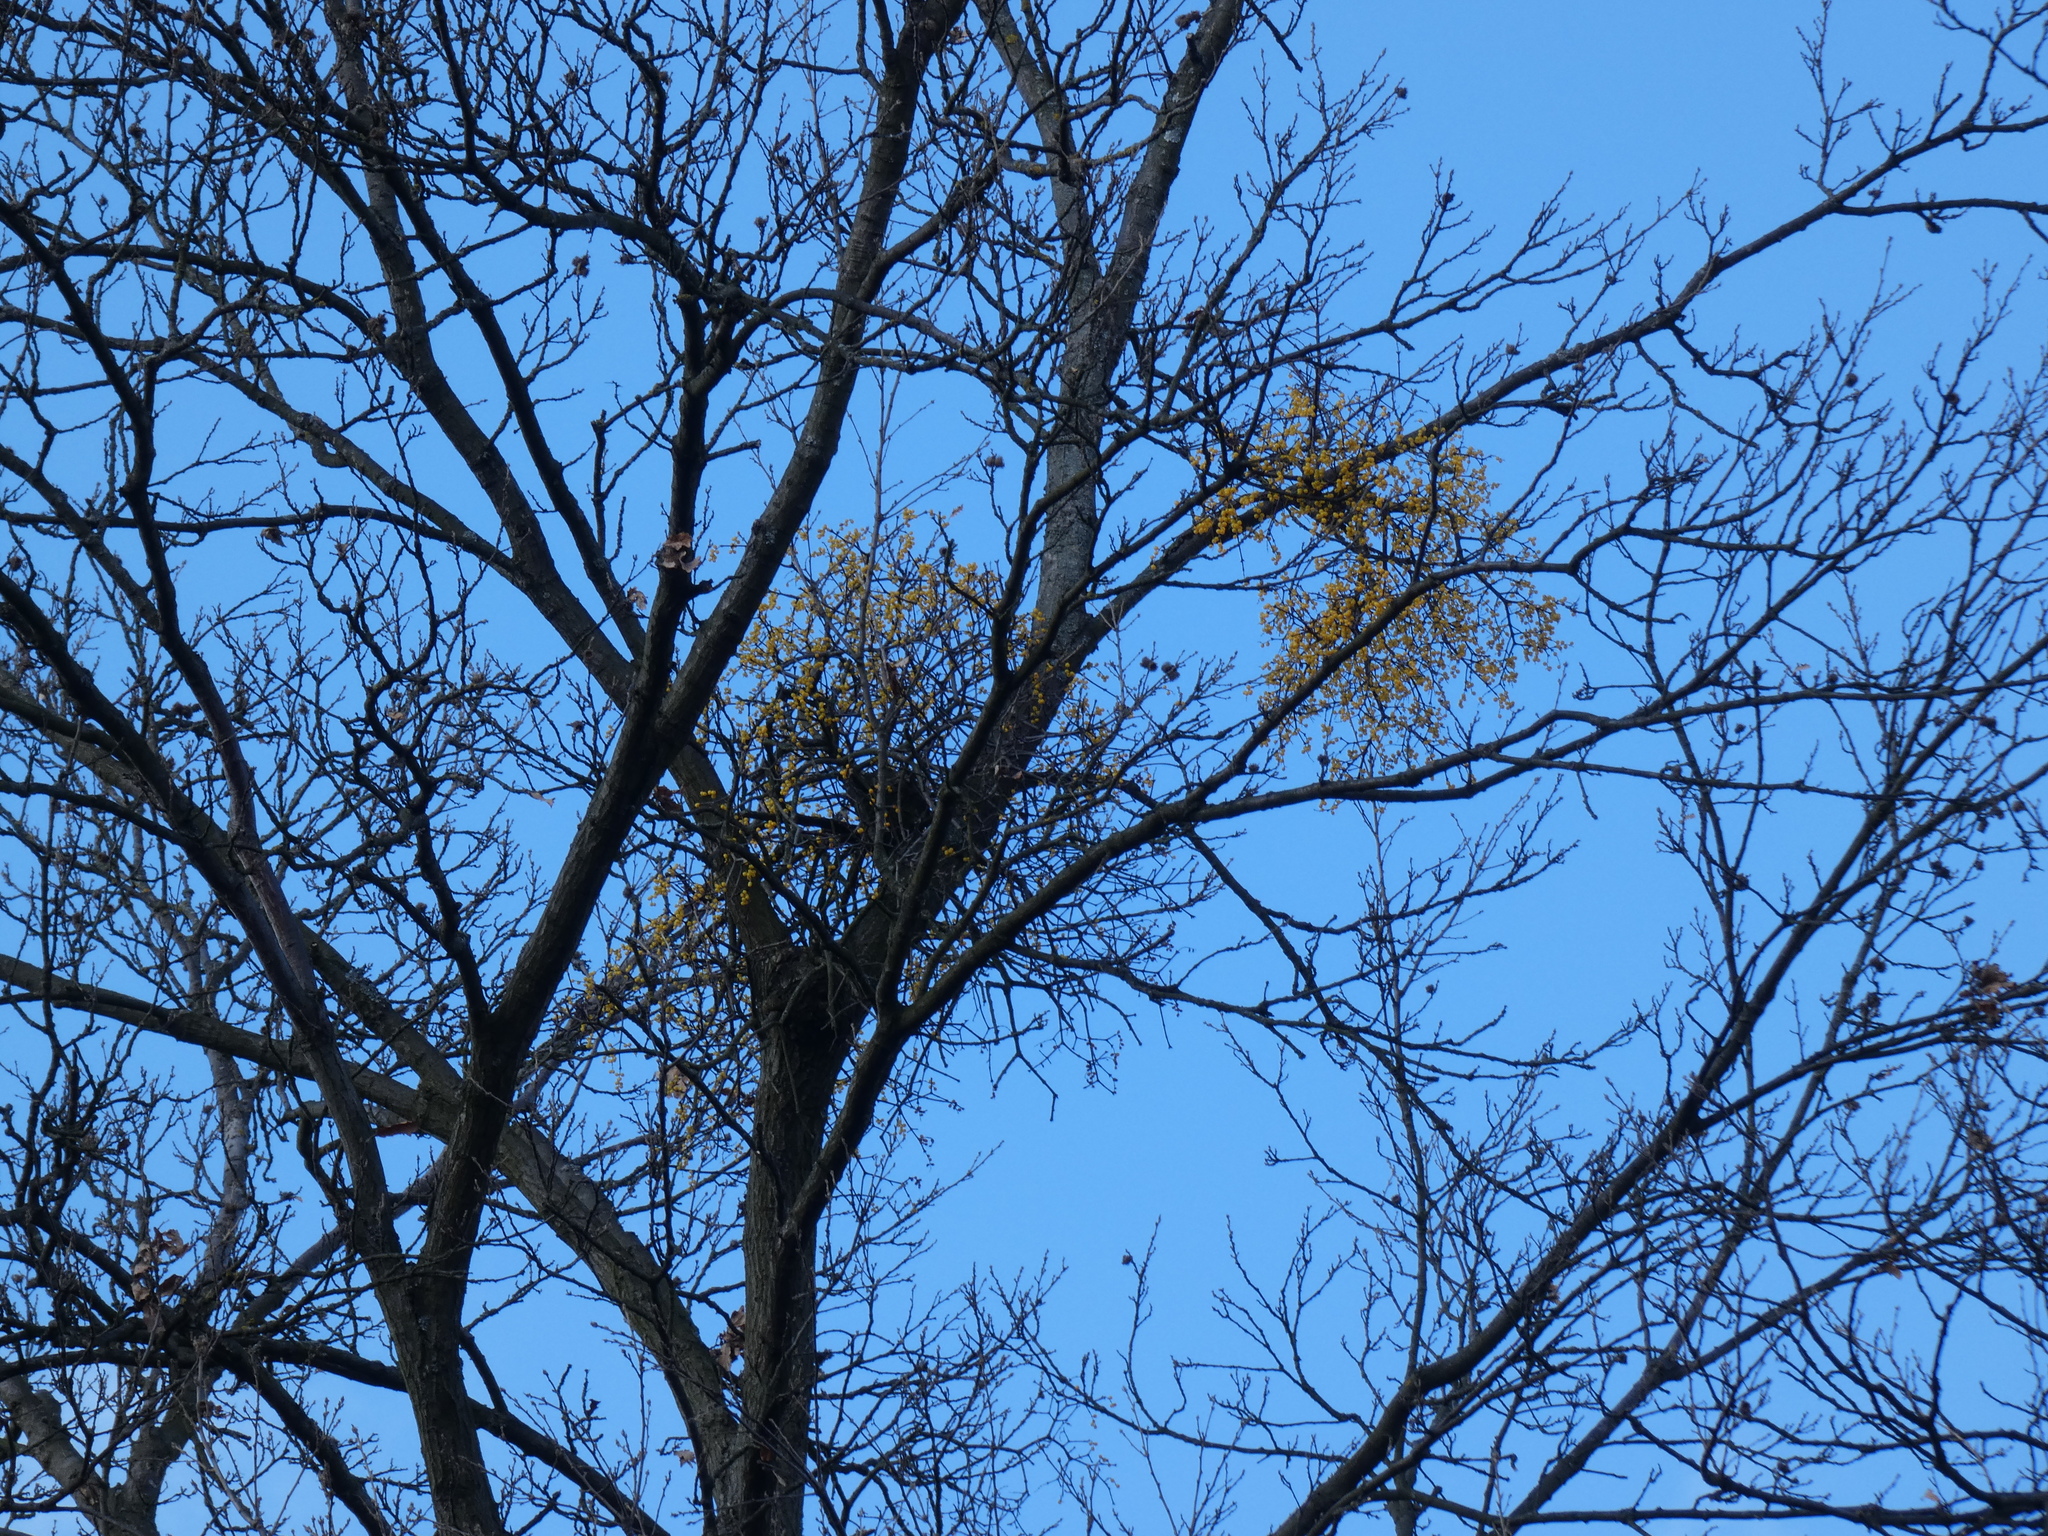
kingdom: Plantae
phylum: Tracheophyta
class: Magnoliopsida
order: Santalales
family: Loranthaceae
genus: Loranthus
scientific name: Loranthus europaeus
